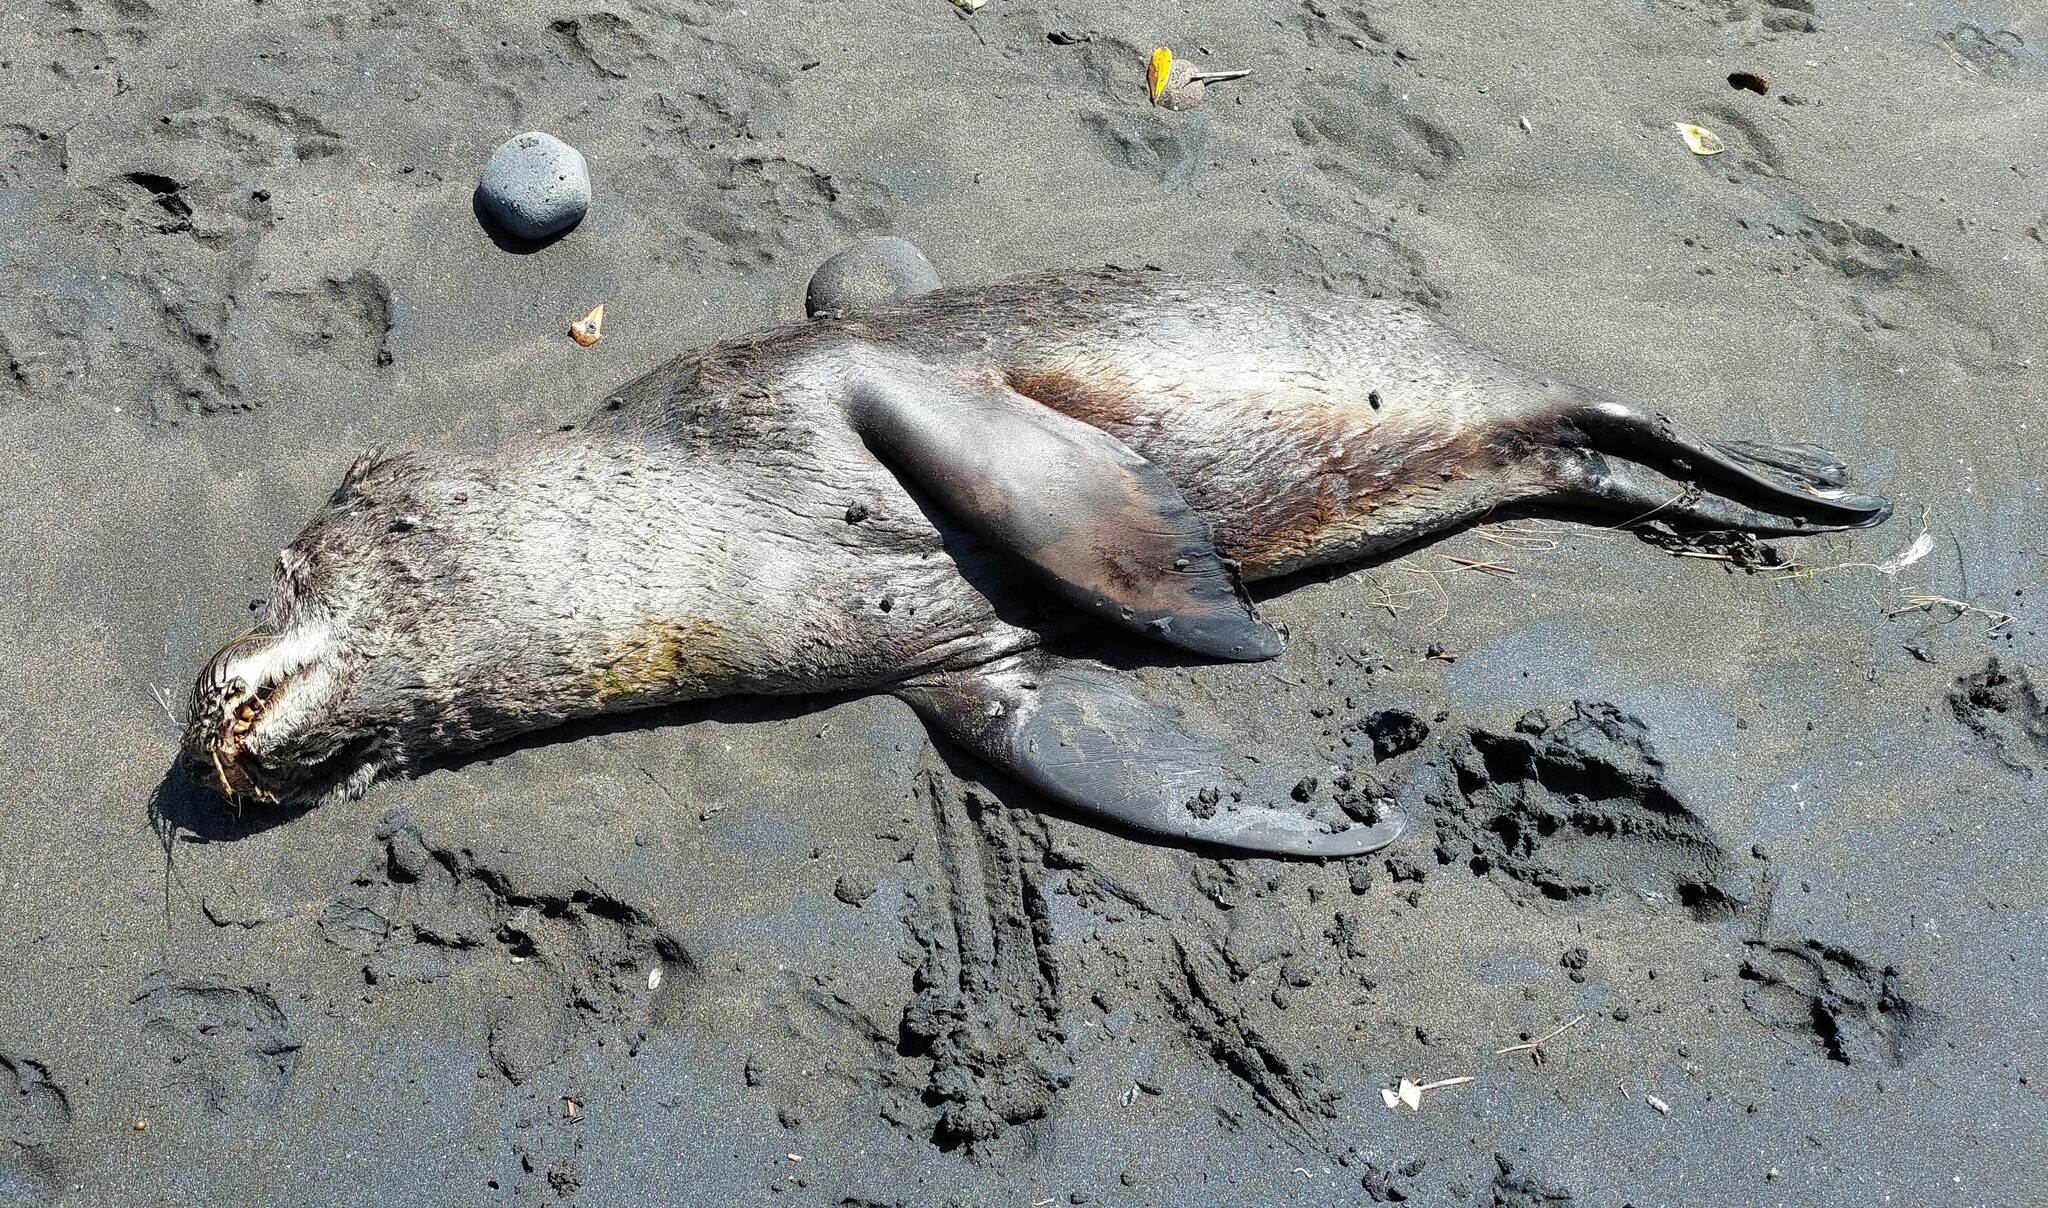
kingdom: Animalia
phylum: Chordata
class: Mammalia
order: Carnivora
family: Otariidae
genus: Arctocephalus
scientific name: Arctocephalus forsteri
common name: New zealand fur seal
